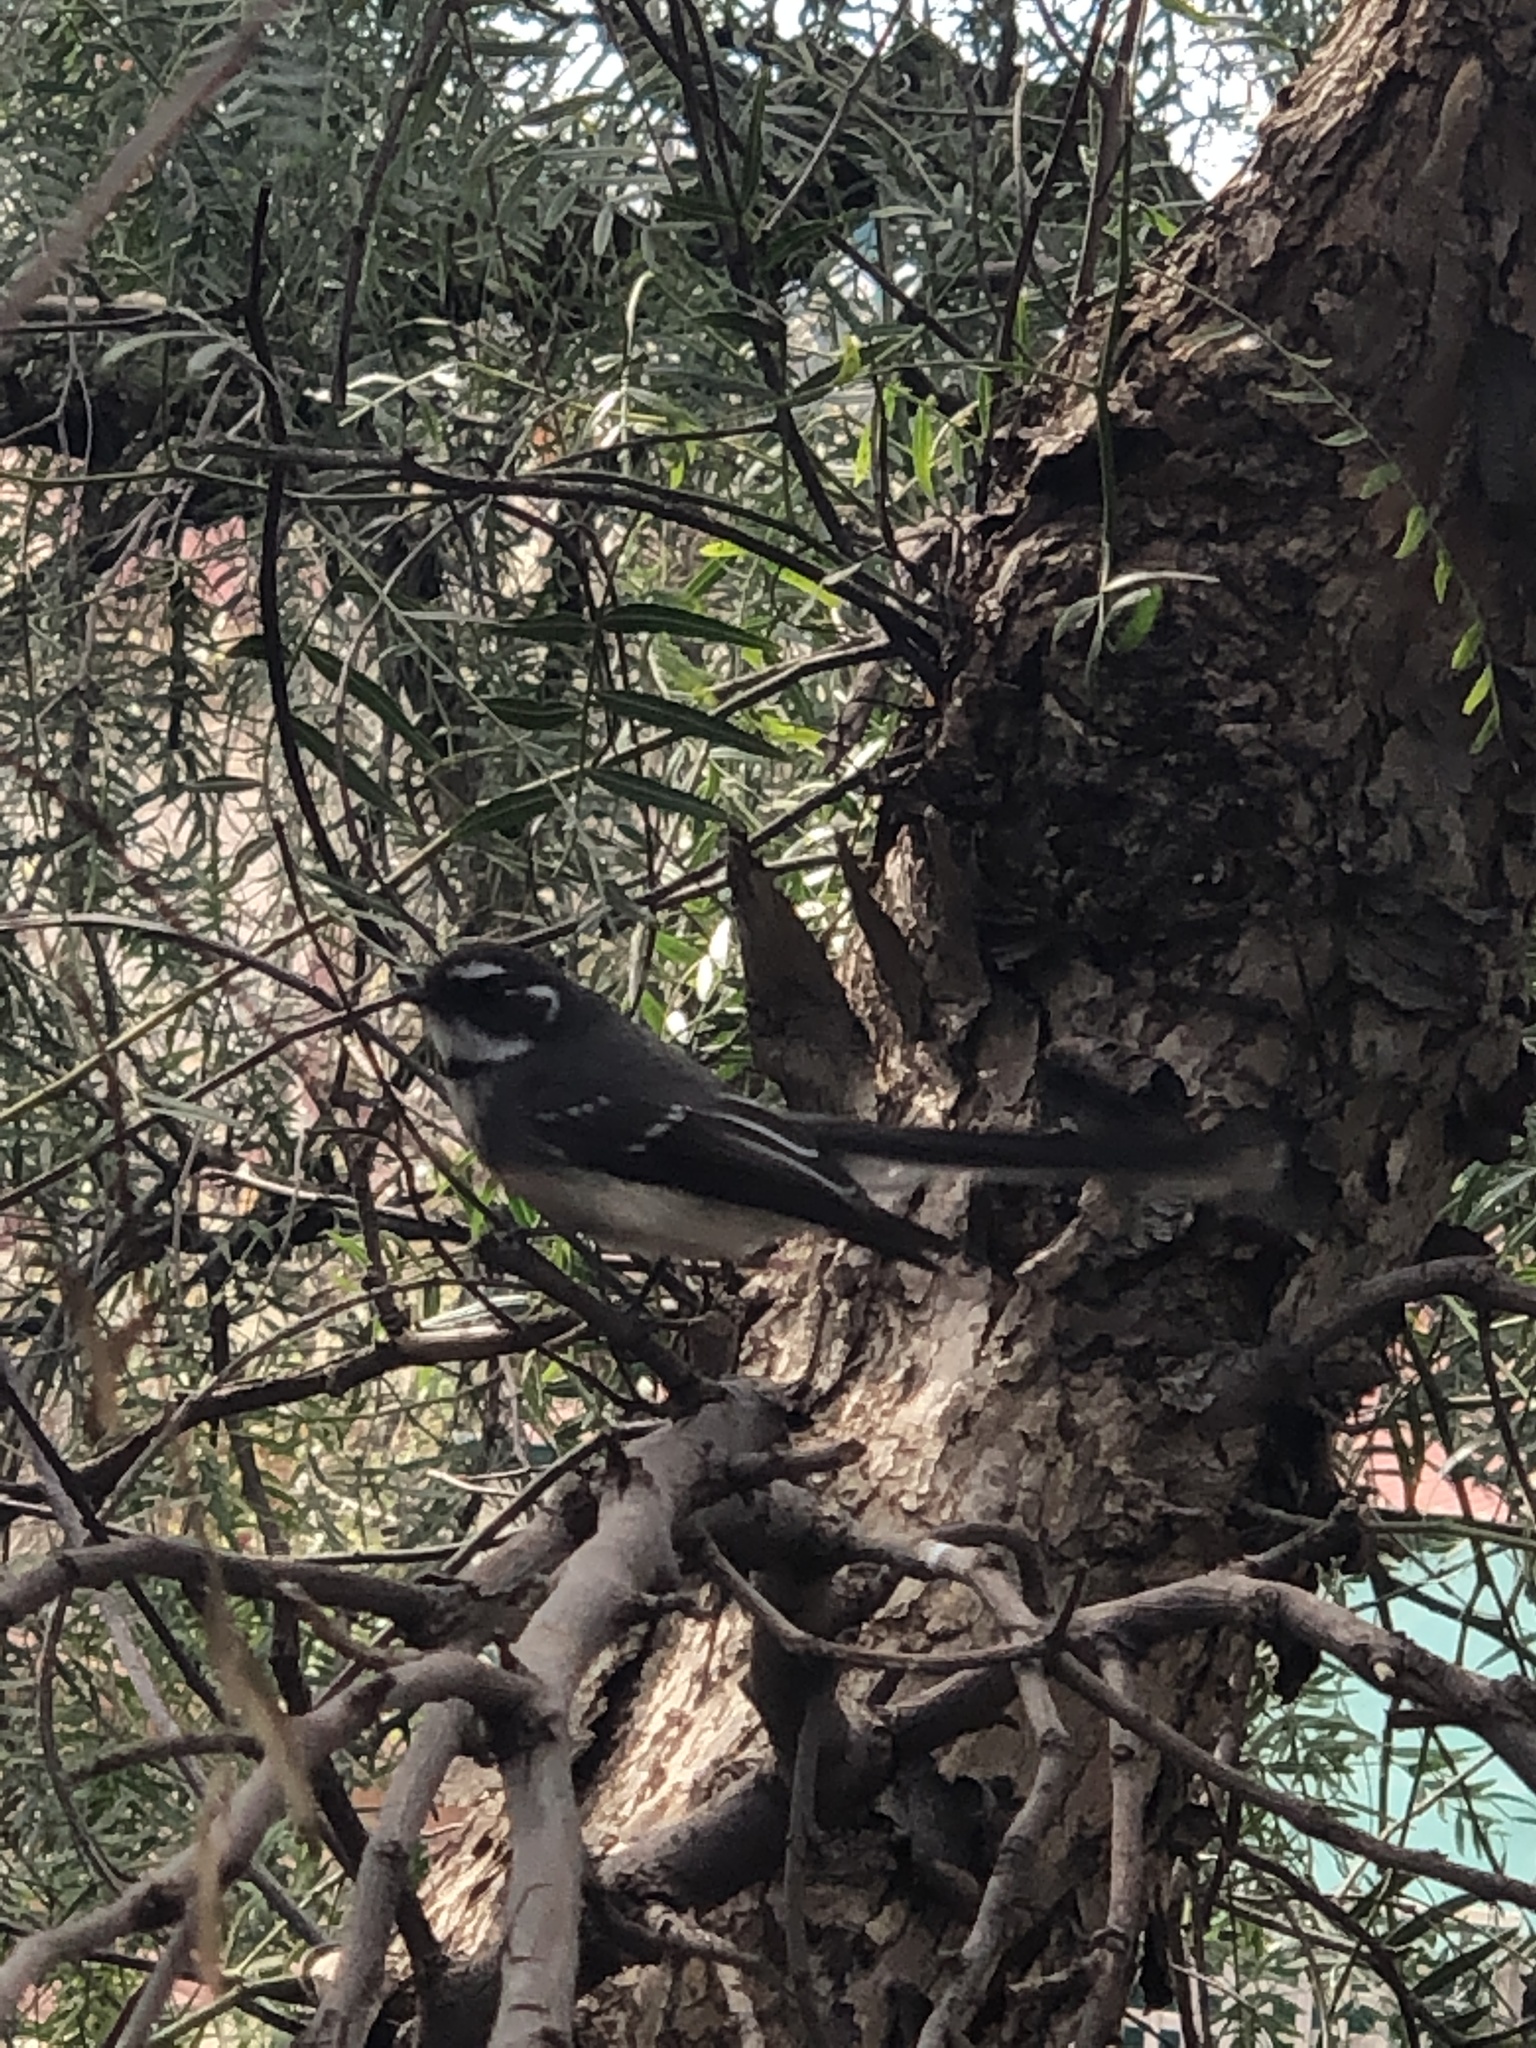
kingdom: Animalia
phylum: Chordata
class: Aves
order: Passeriformes
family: Rhipiduridae
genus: Rhipidura
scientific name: Rhipidura albiscapa
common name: Grey fantail
